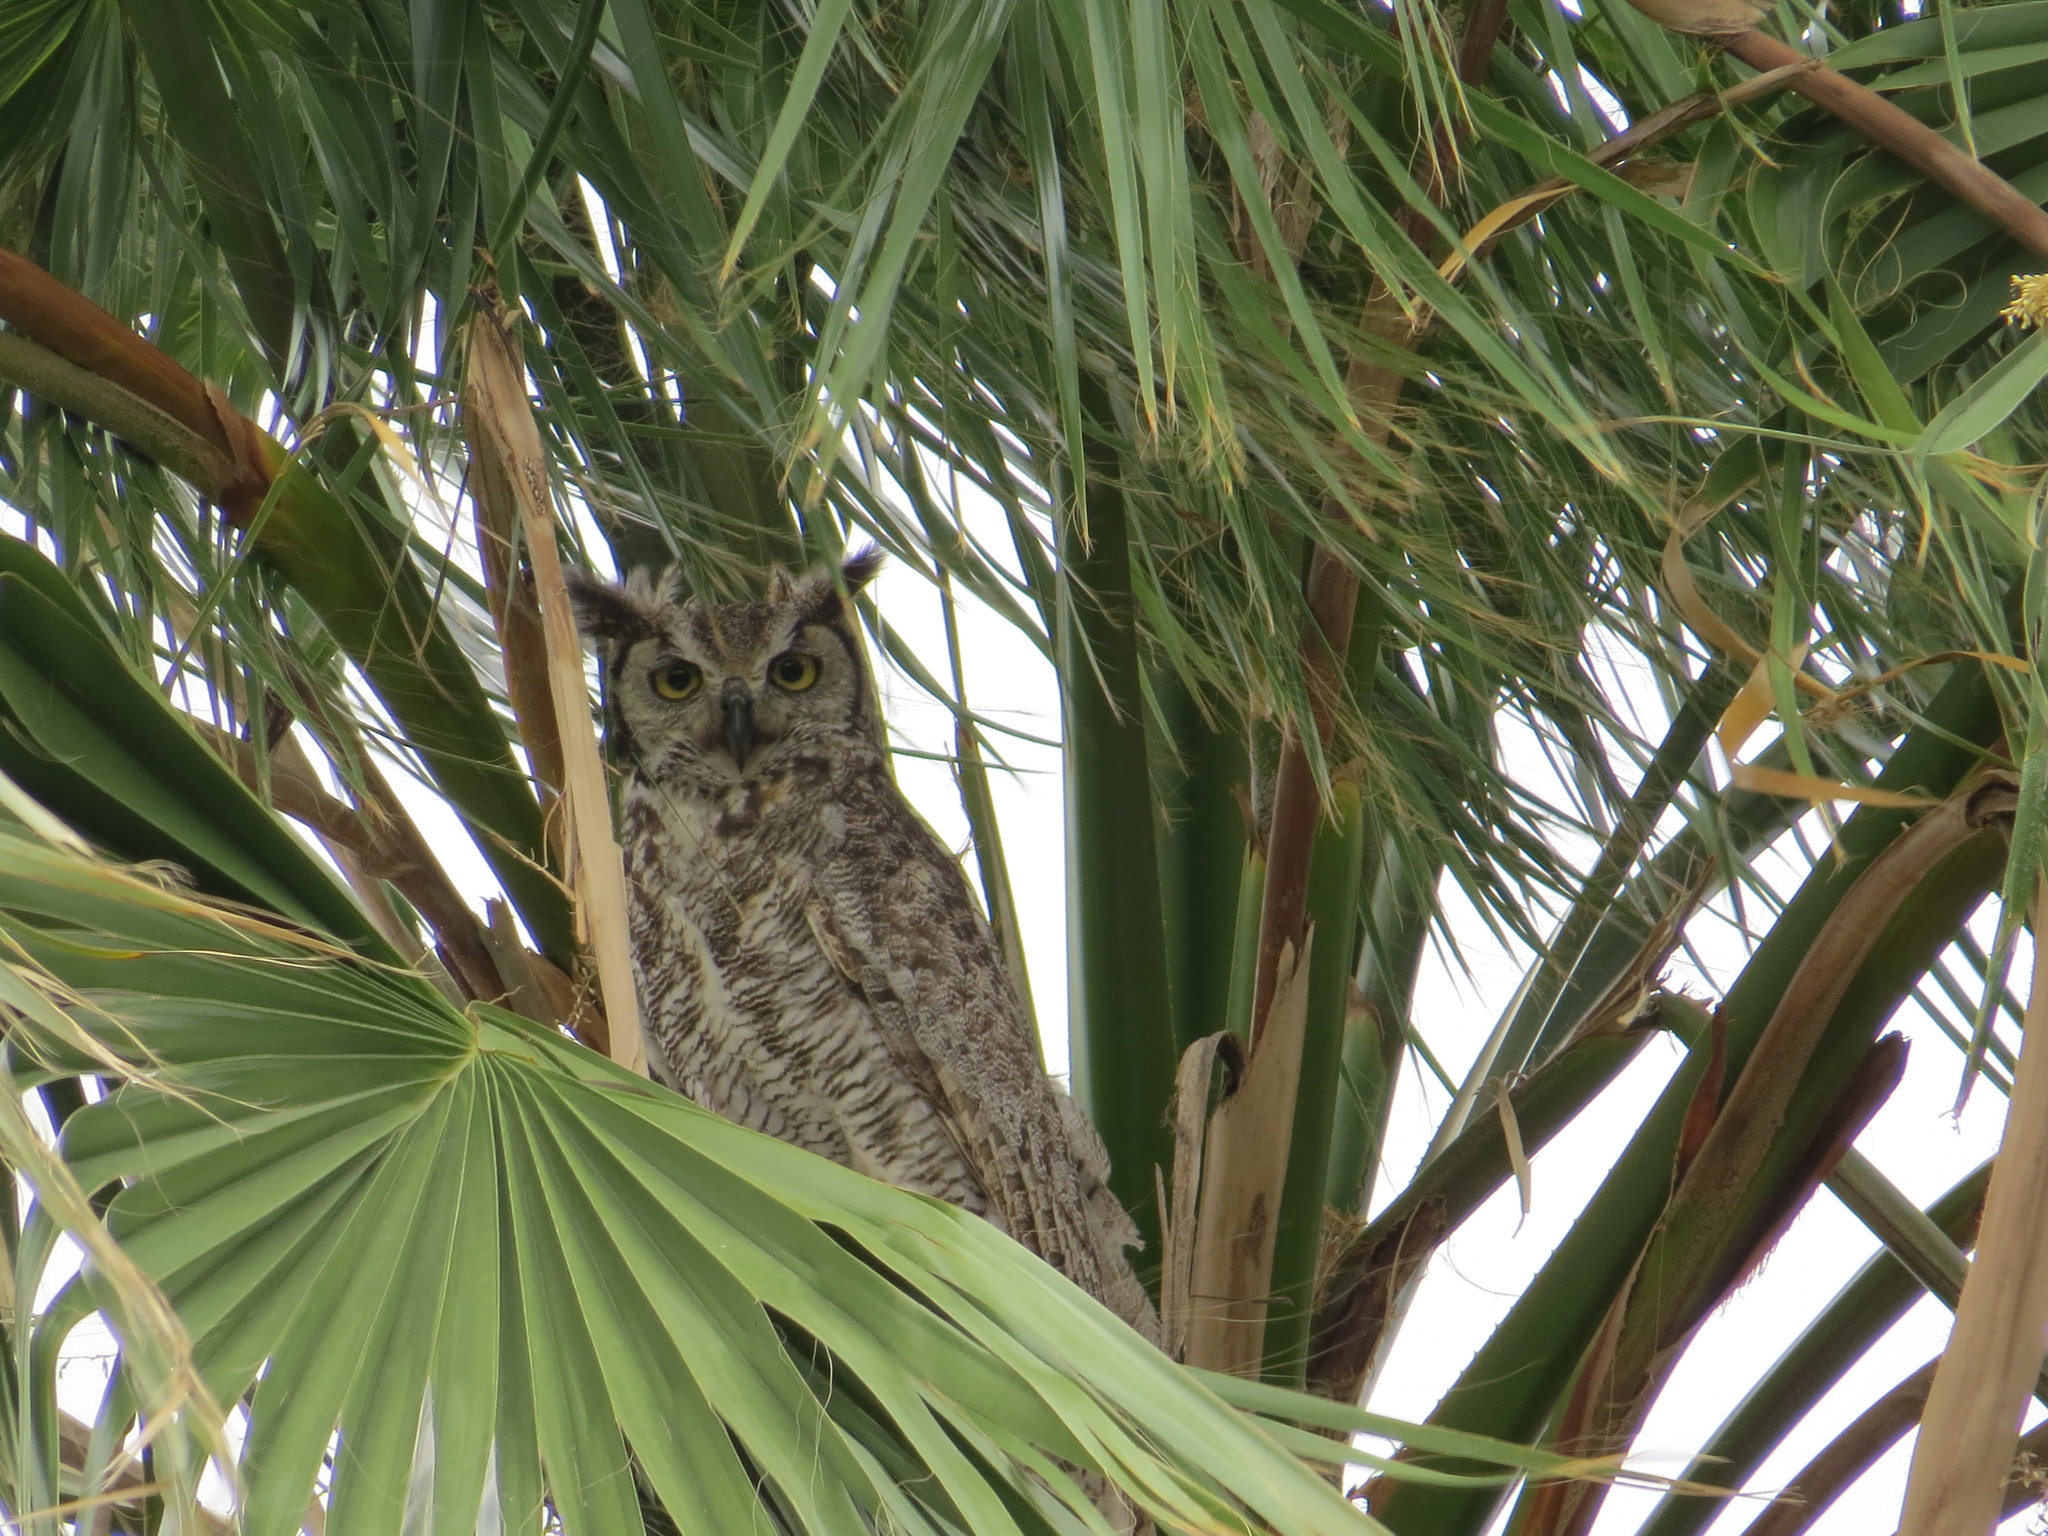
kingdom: Animalia
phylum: Chordata
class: Aves
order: Strigiformes
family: Strigidae
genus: Bubo
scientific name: Bubo virginianus
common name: Great horned owl
